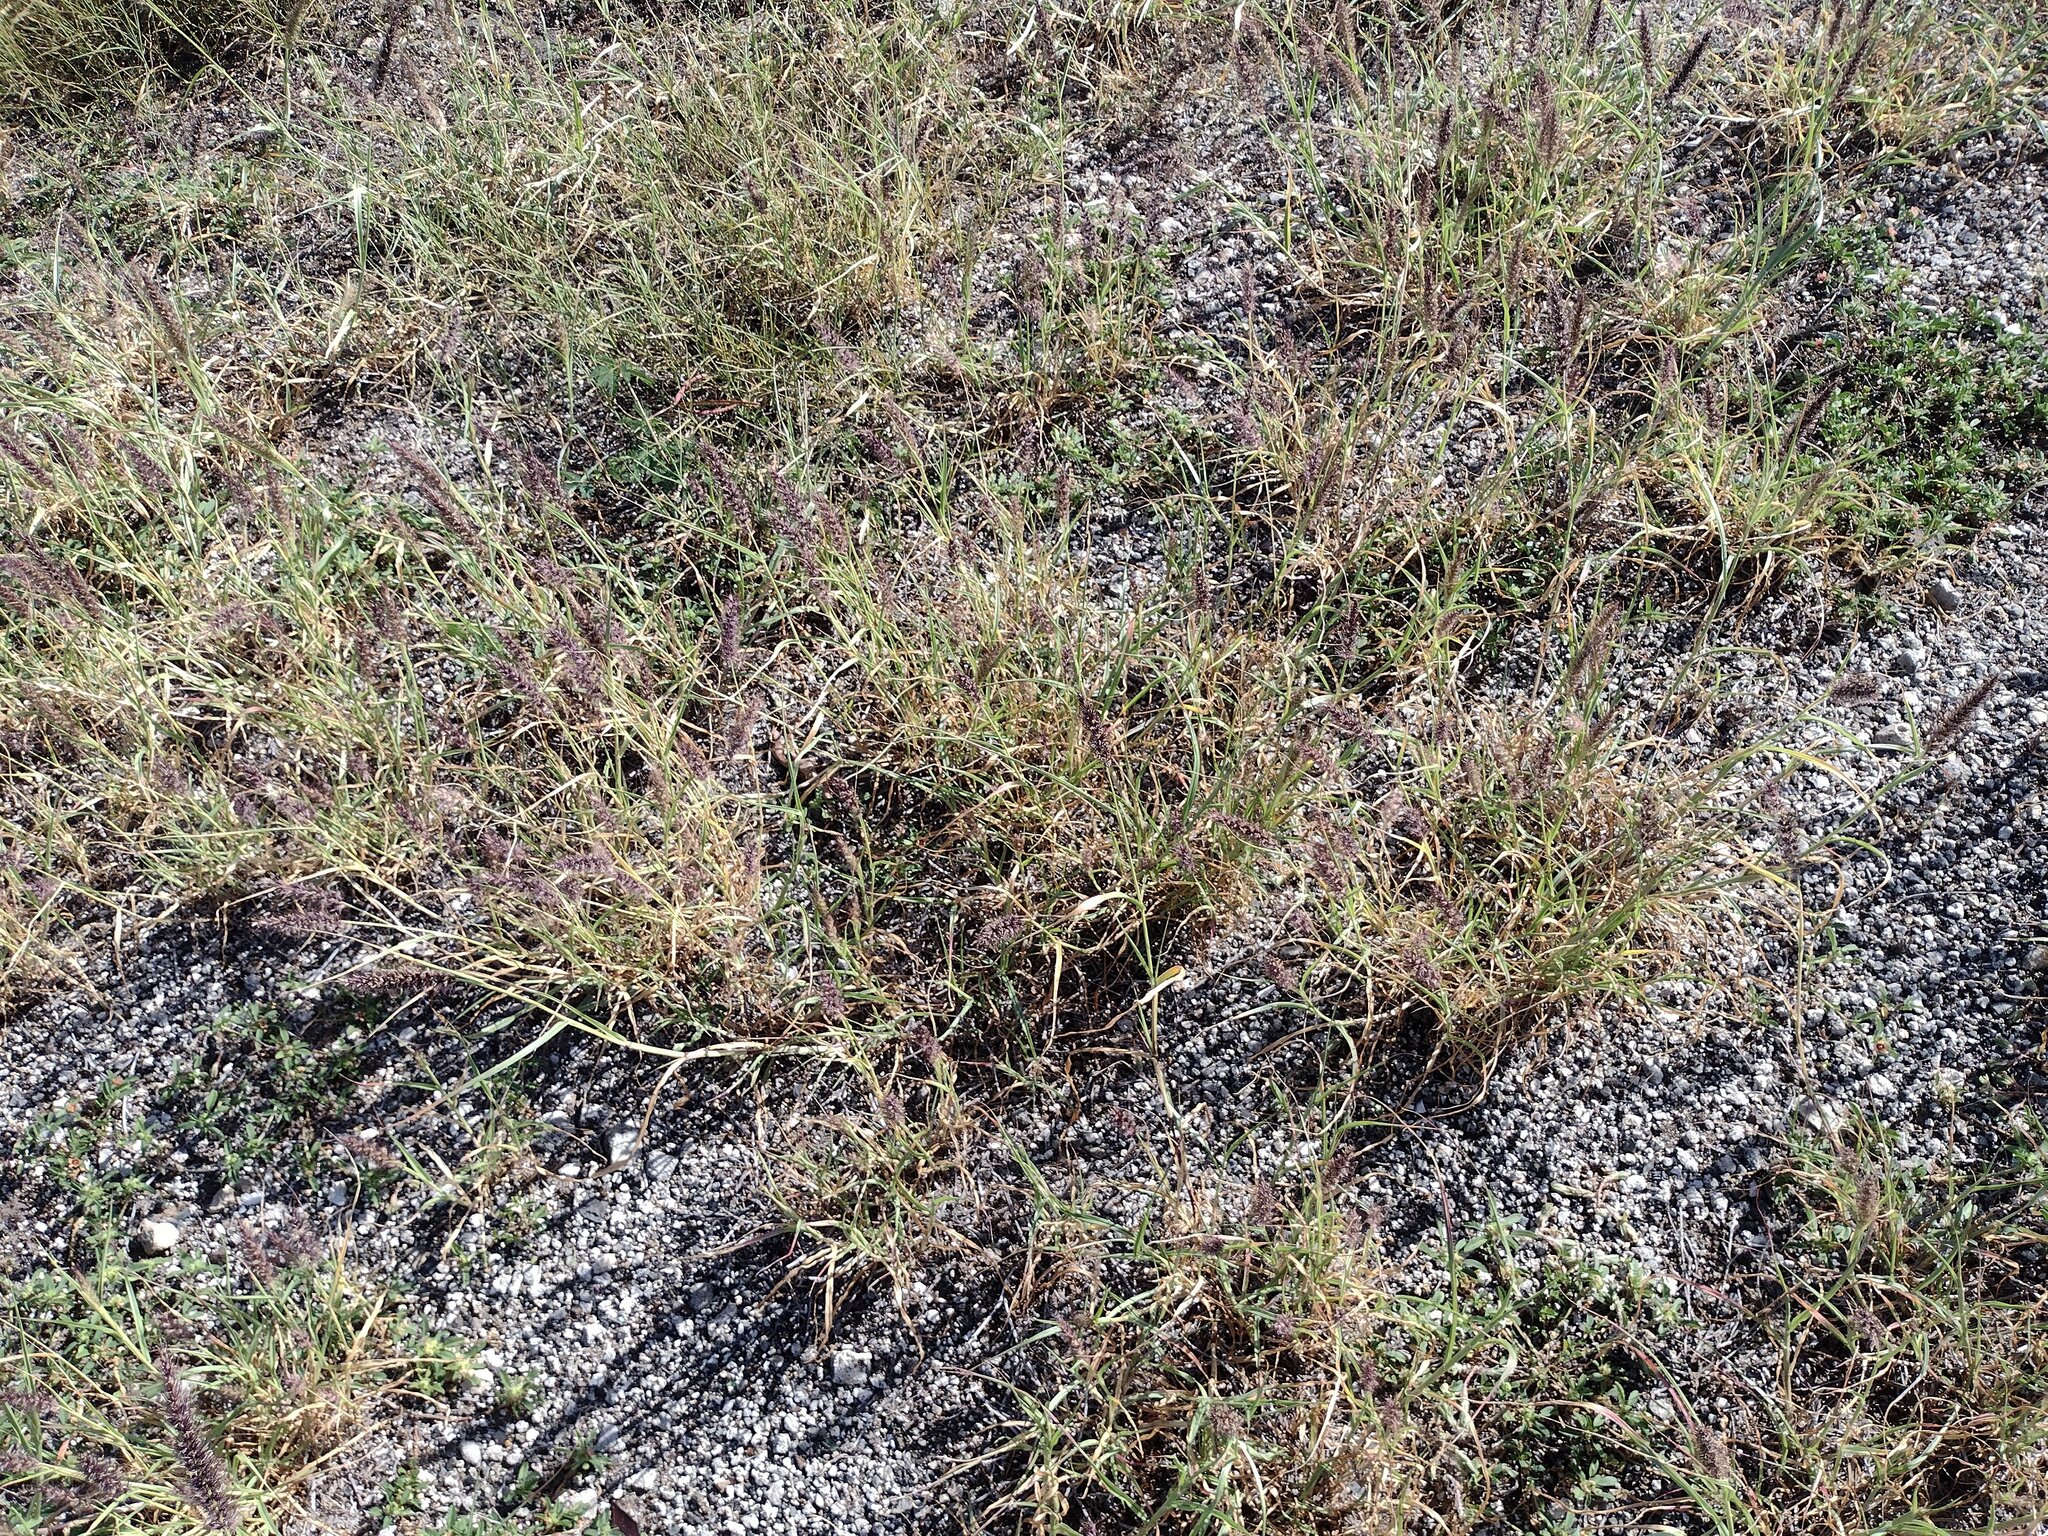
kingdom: Plantae
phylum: Tracheophyta
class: Liliopsida
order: Poales
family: Poaceae
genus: Cenchrus
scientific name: Cenchrus ciliaris
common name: Buffelgrass
